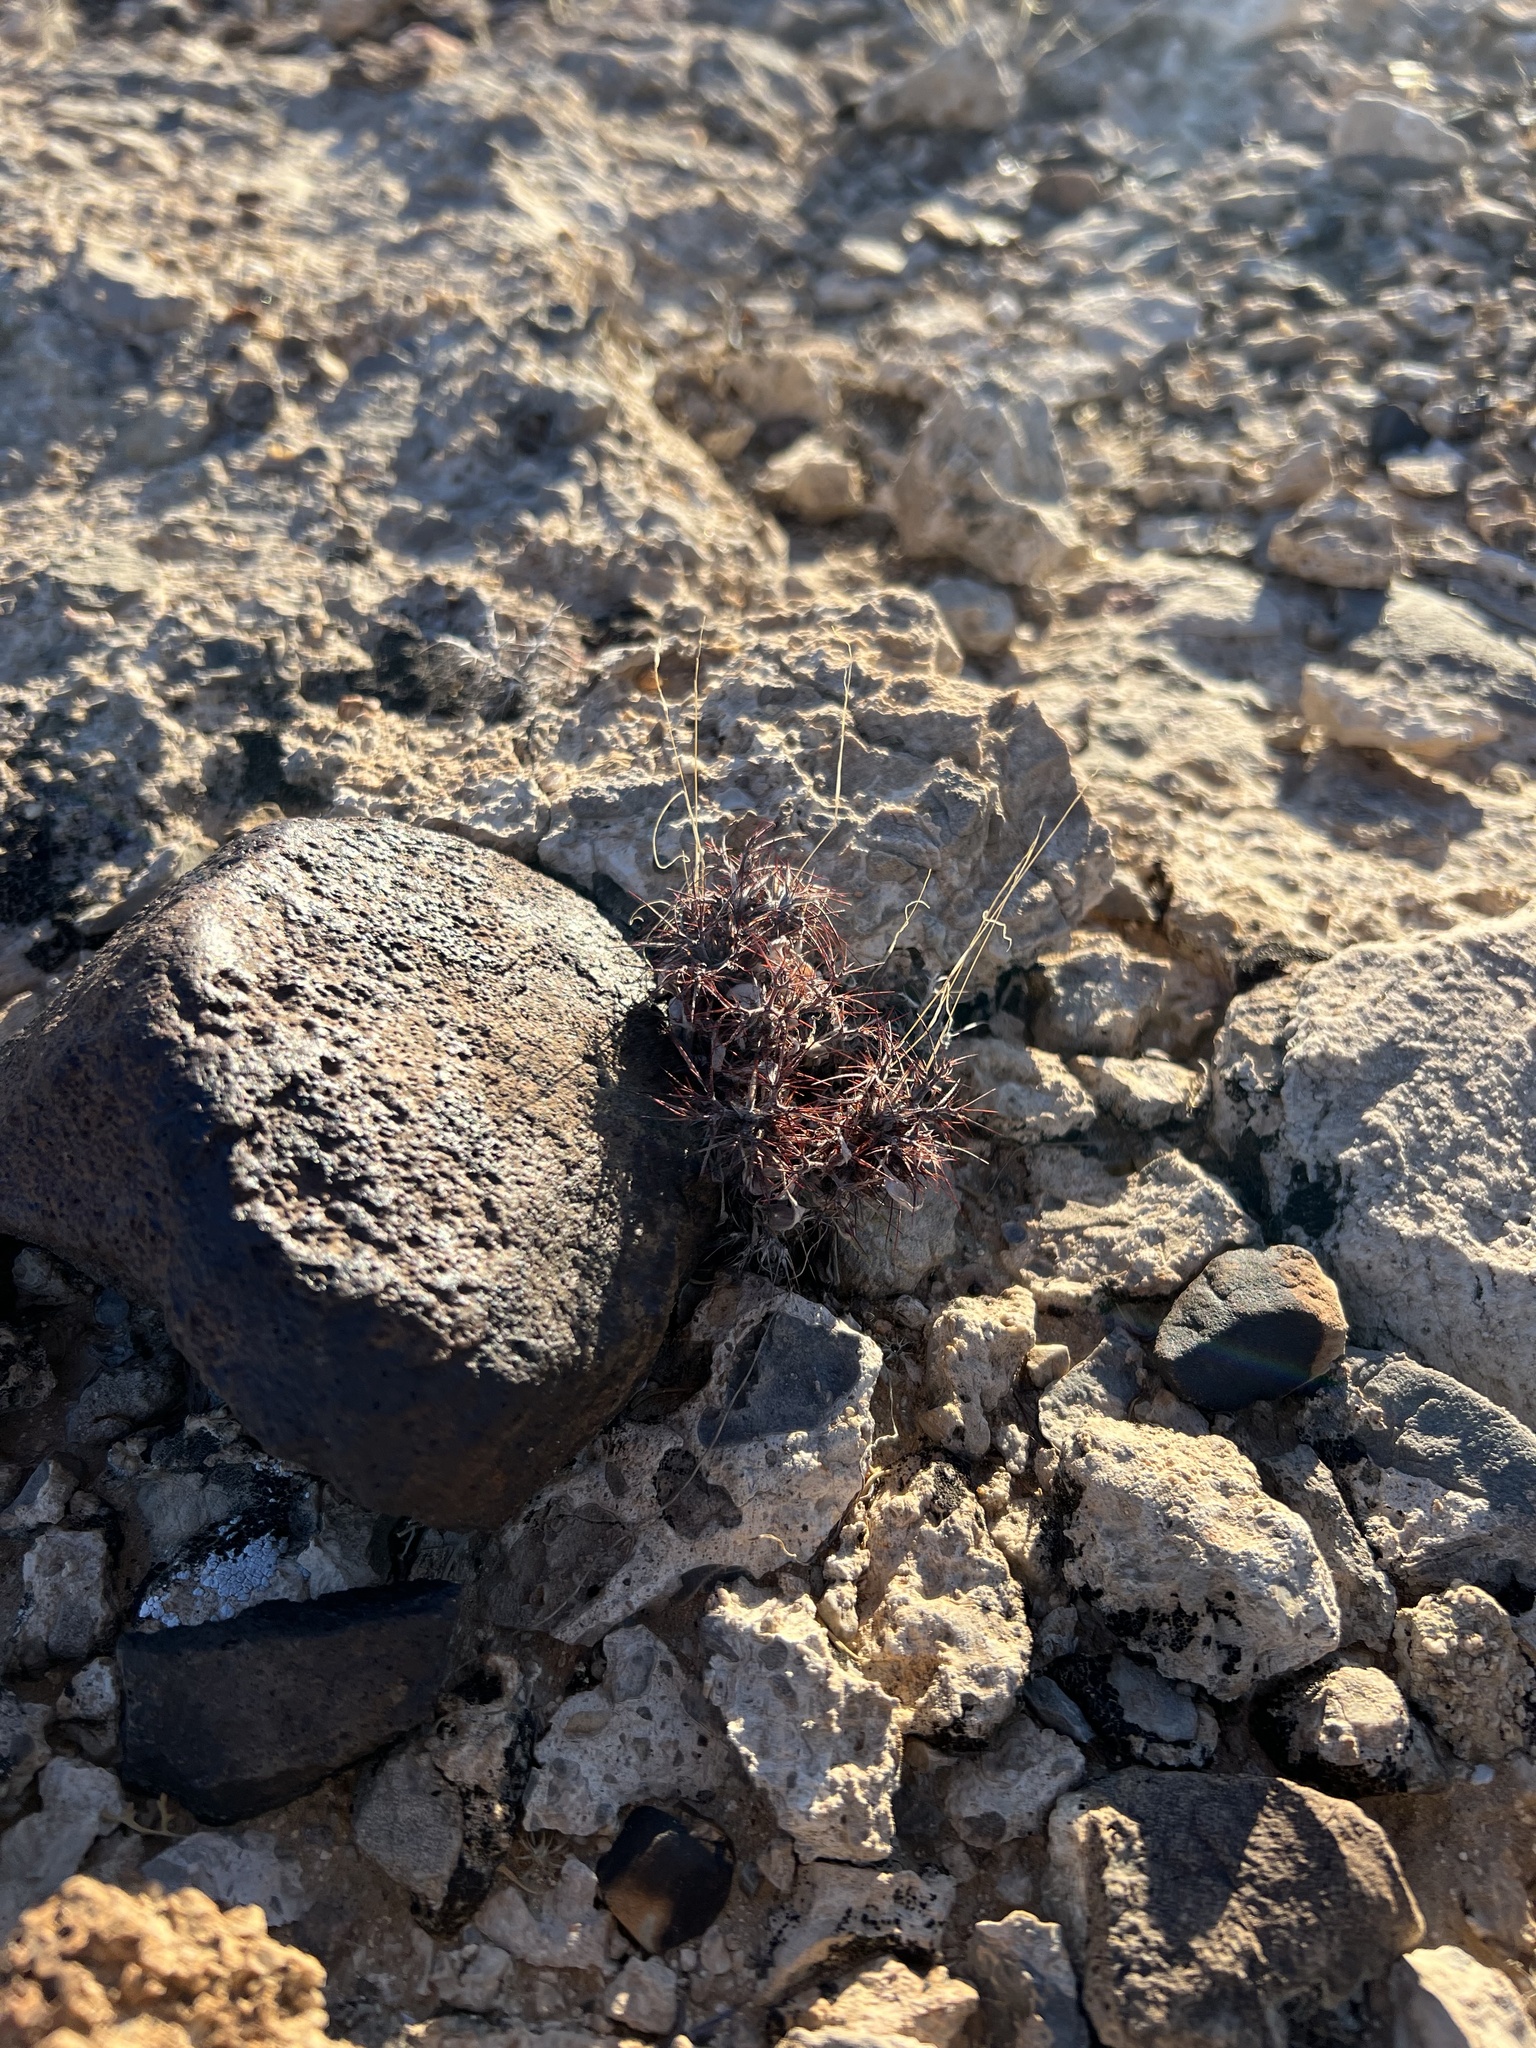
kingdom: Plantae
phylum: Tracheophyta
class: Magnoliopsida
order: Caryophyllales
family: Polygonaceae
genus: Chorizanthe
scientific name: Chorizanthe rigida
